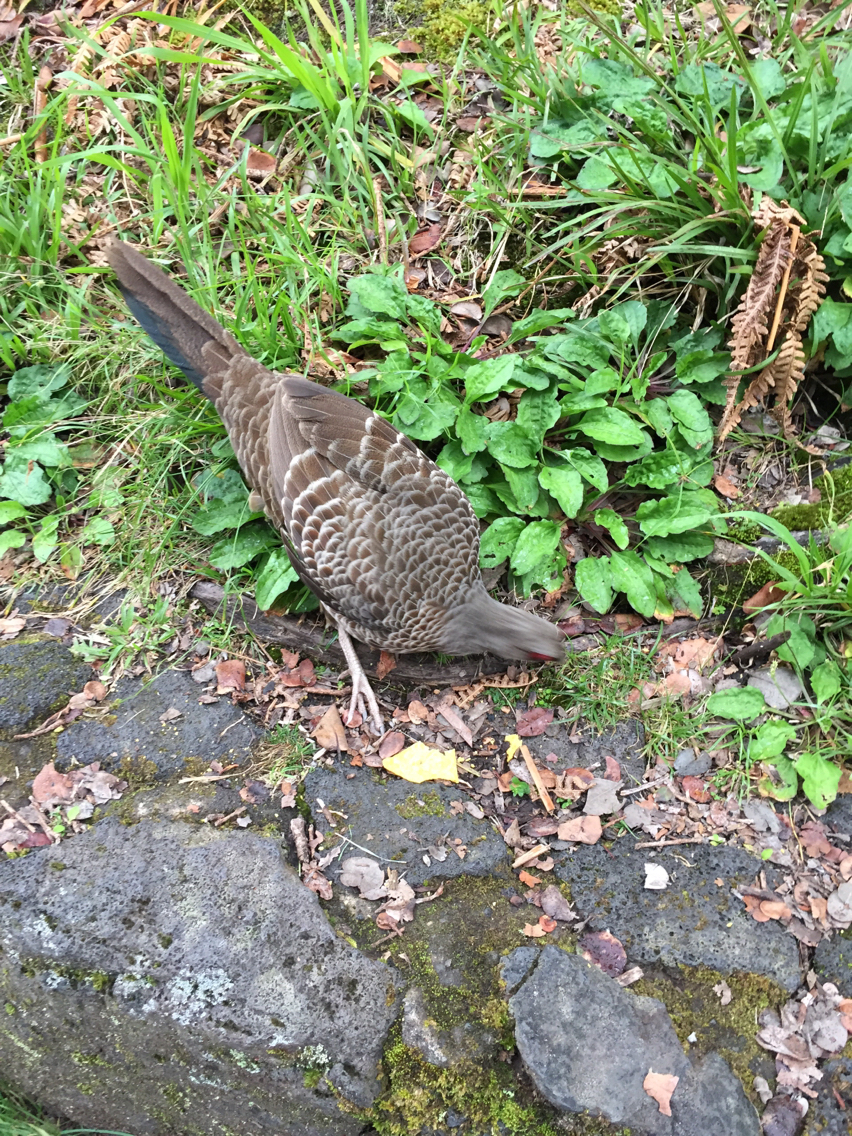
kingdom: Animalia
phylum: Chordata
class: Aves
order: Galliformes
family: Phasianidae
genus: Lophura
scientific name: Lophura leucomelanos
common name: Kalij pheasant
